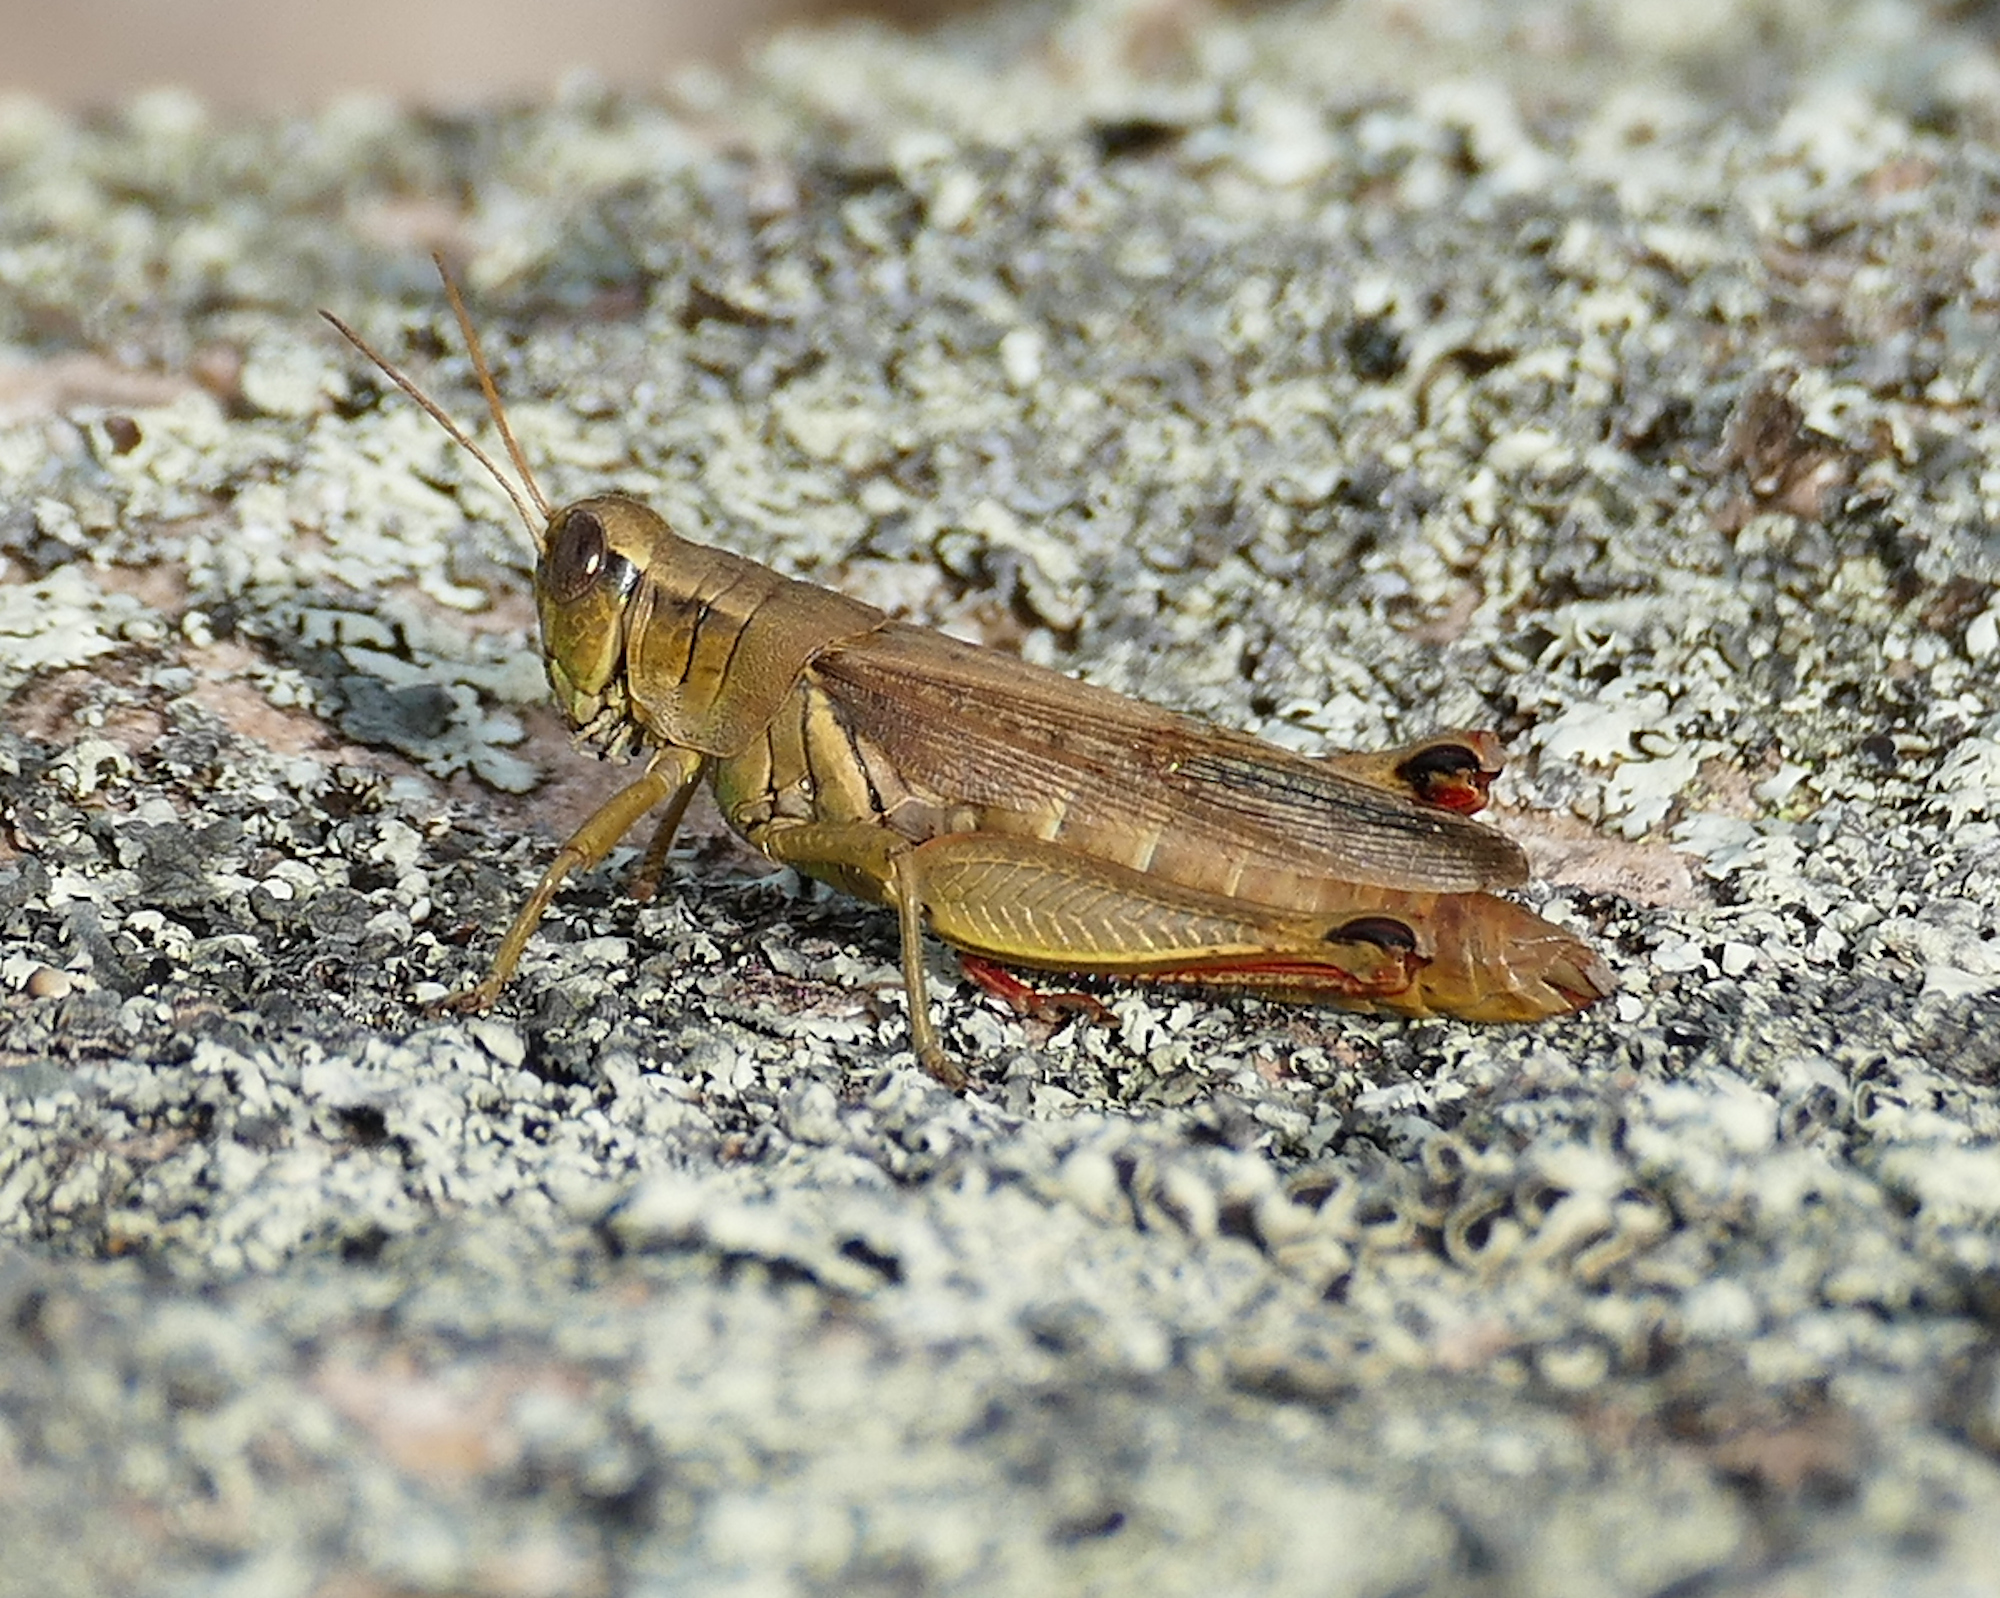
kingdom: Animalia
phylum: Arthropoda
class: Insecta
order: Orthoptera
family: Acrididae
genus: Melanoplus
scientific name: Melanoplus yarrowii
